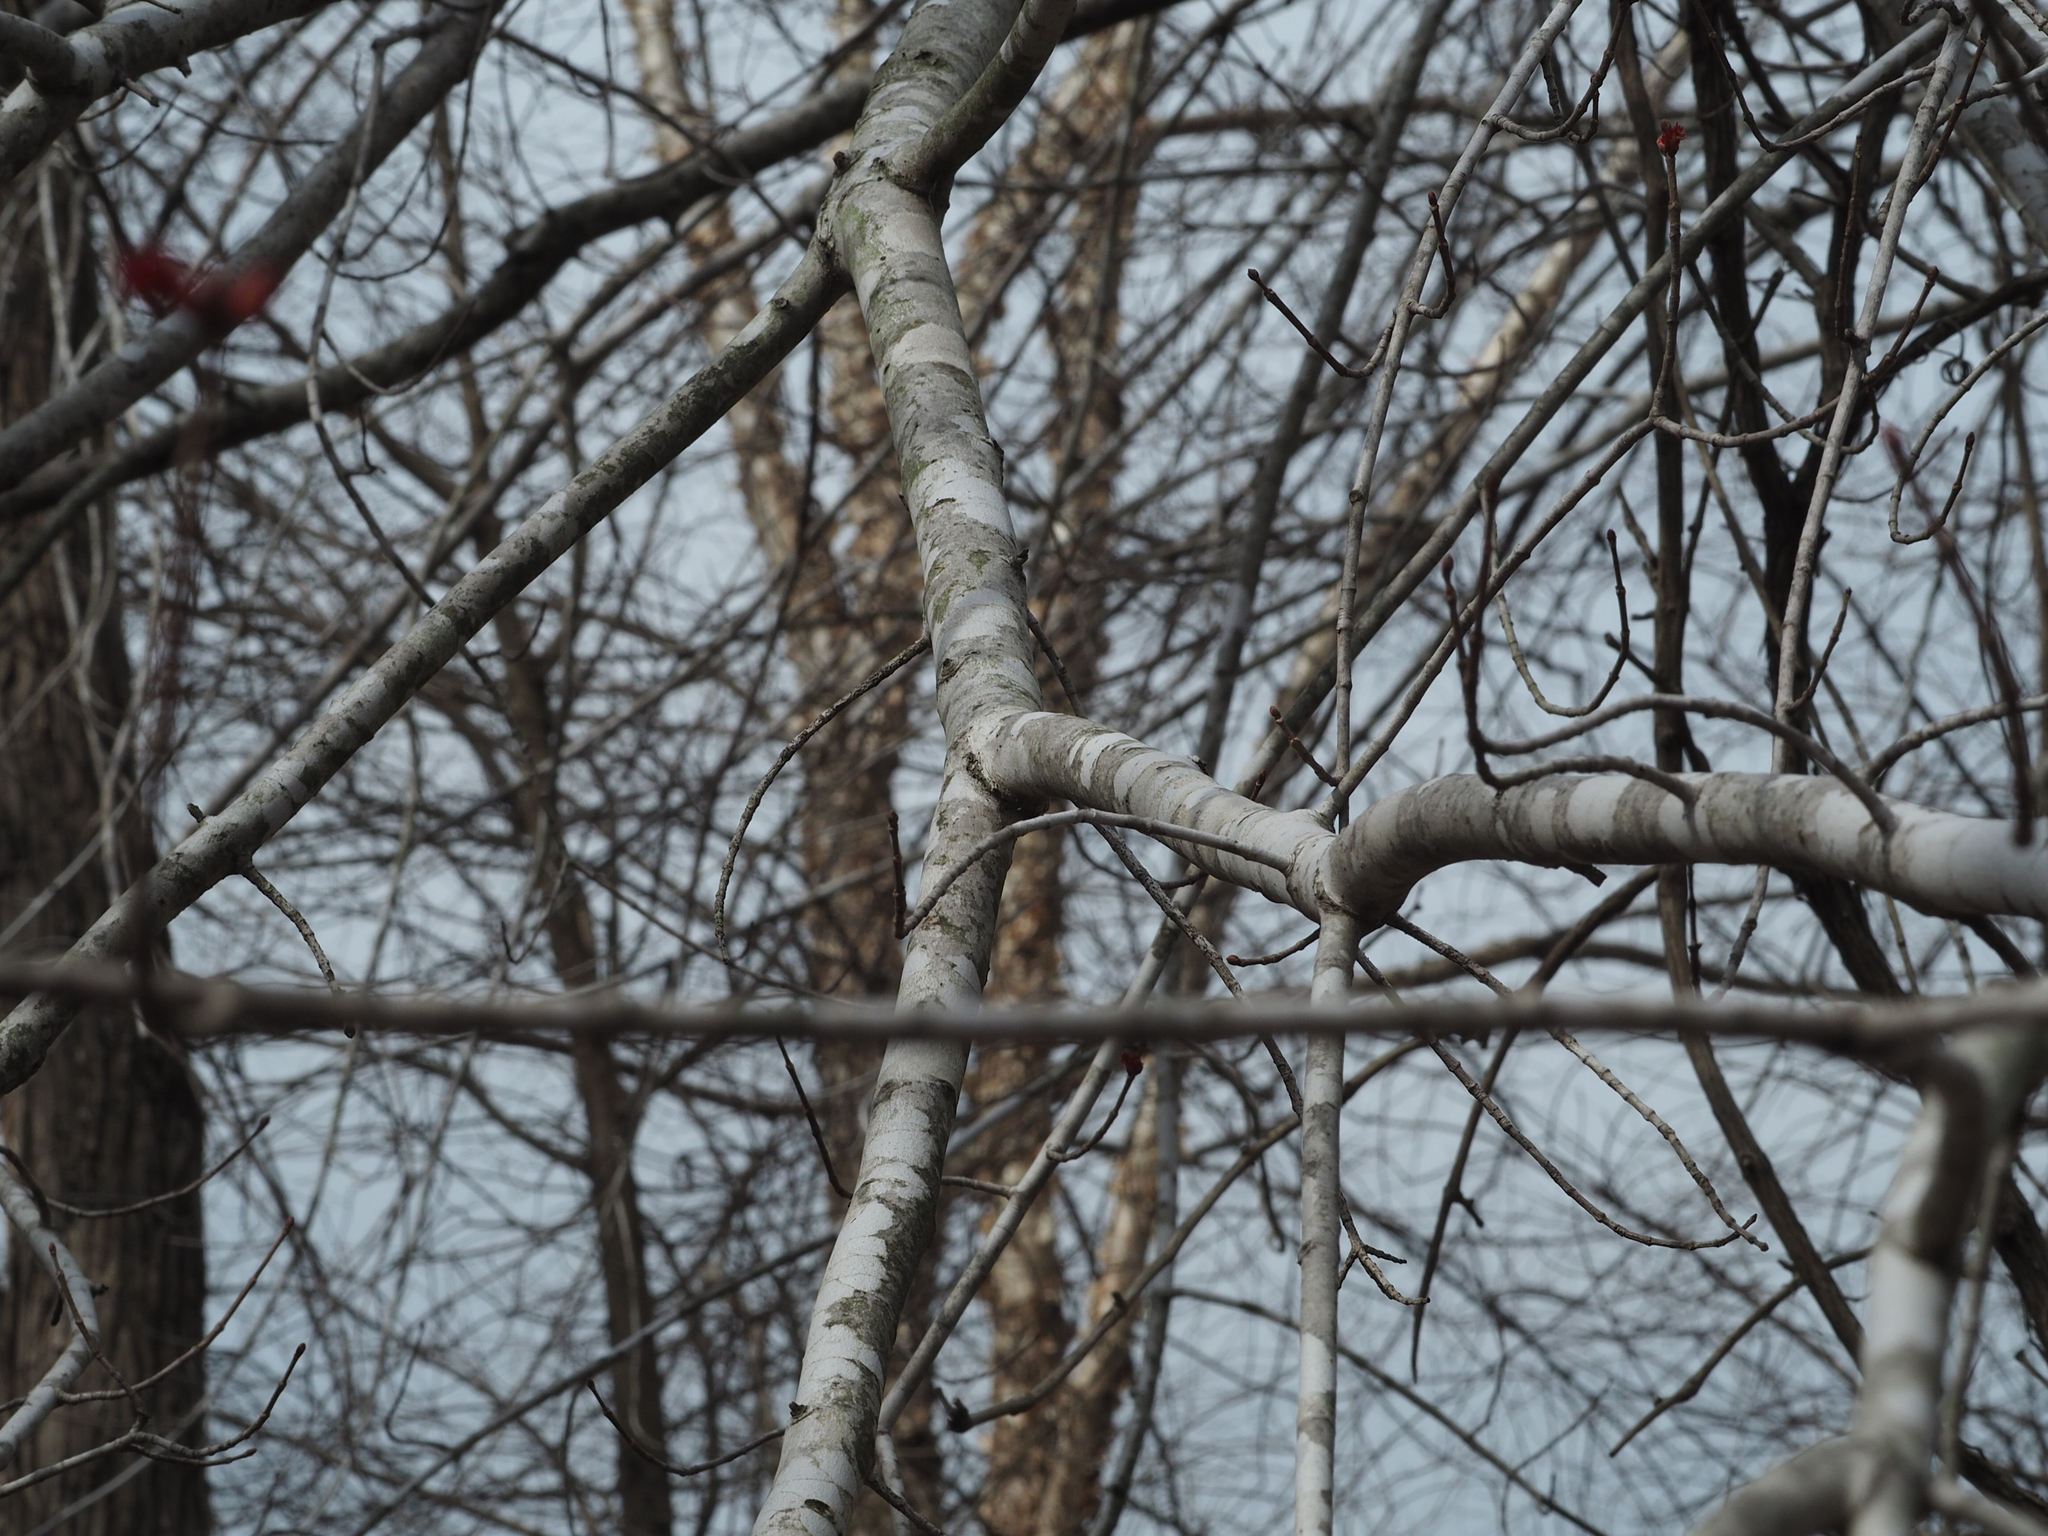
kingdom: Plantae
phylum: Tracheophyta
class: Magnoliopsida
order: Sapindales
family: Sapindaceae
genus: Acer
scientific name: Acer rubrum
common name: Red maple
